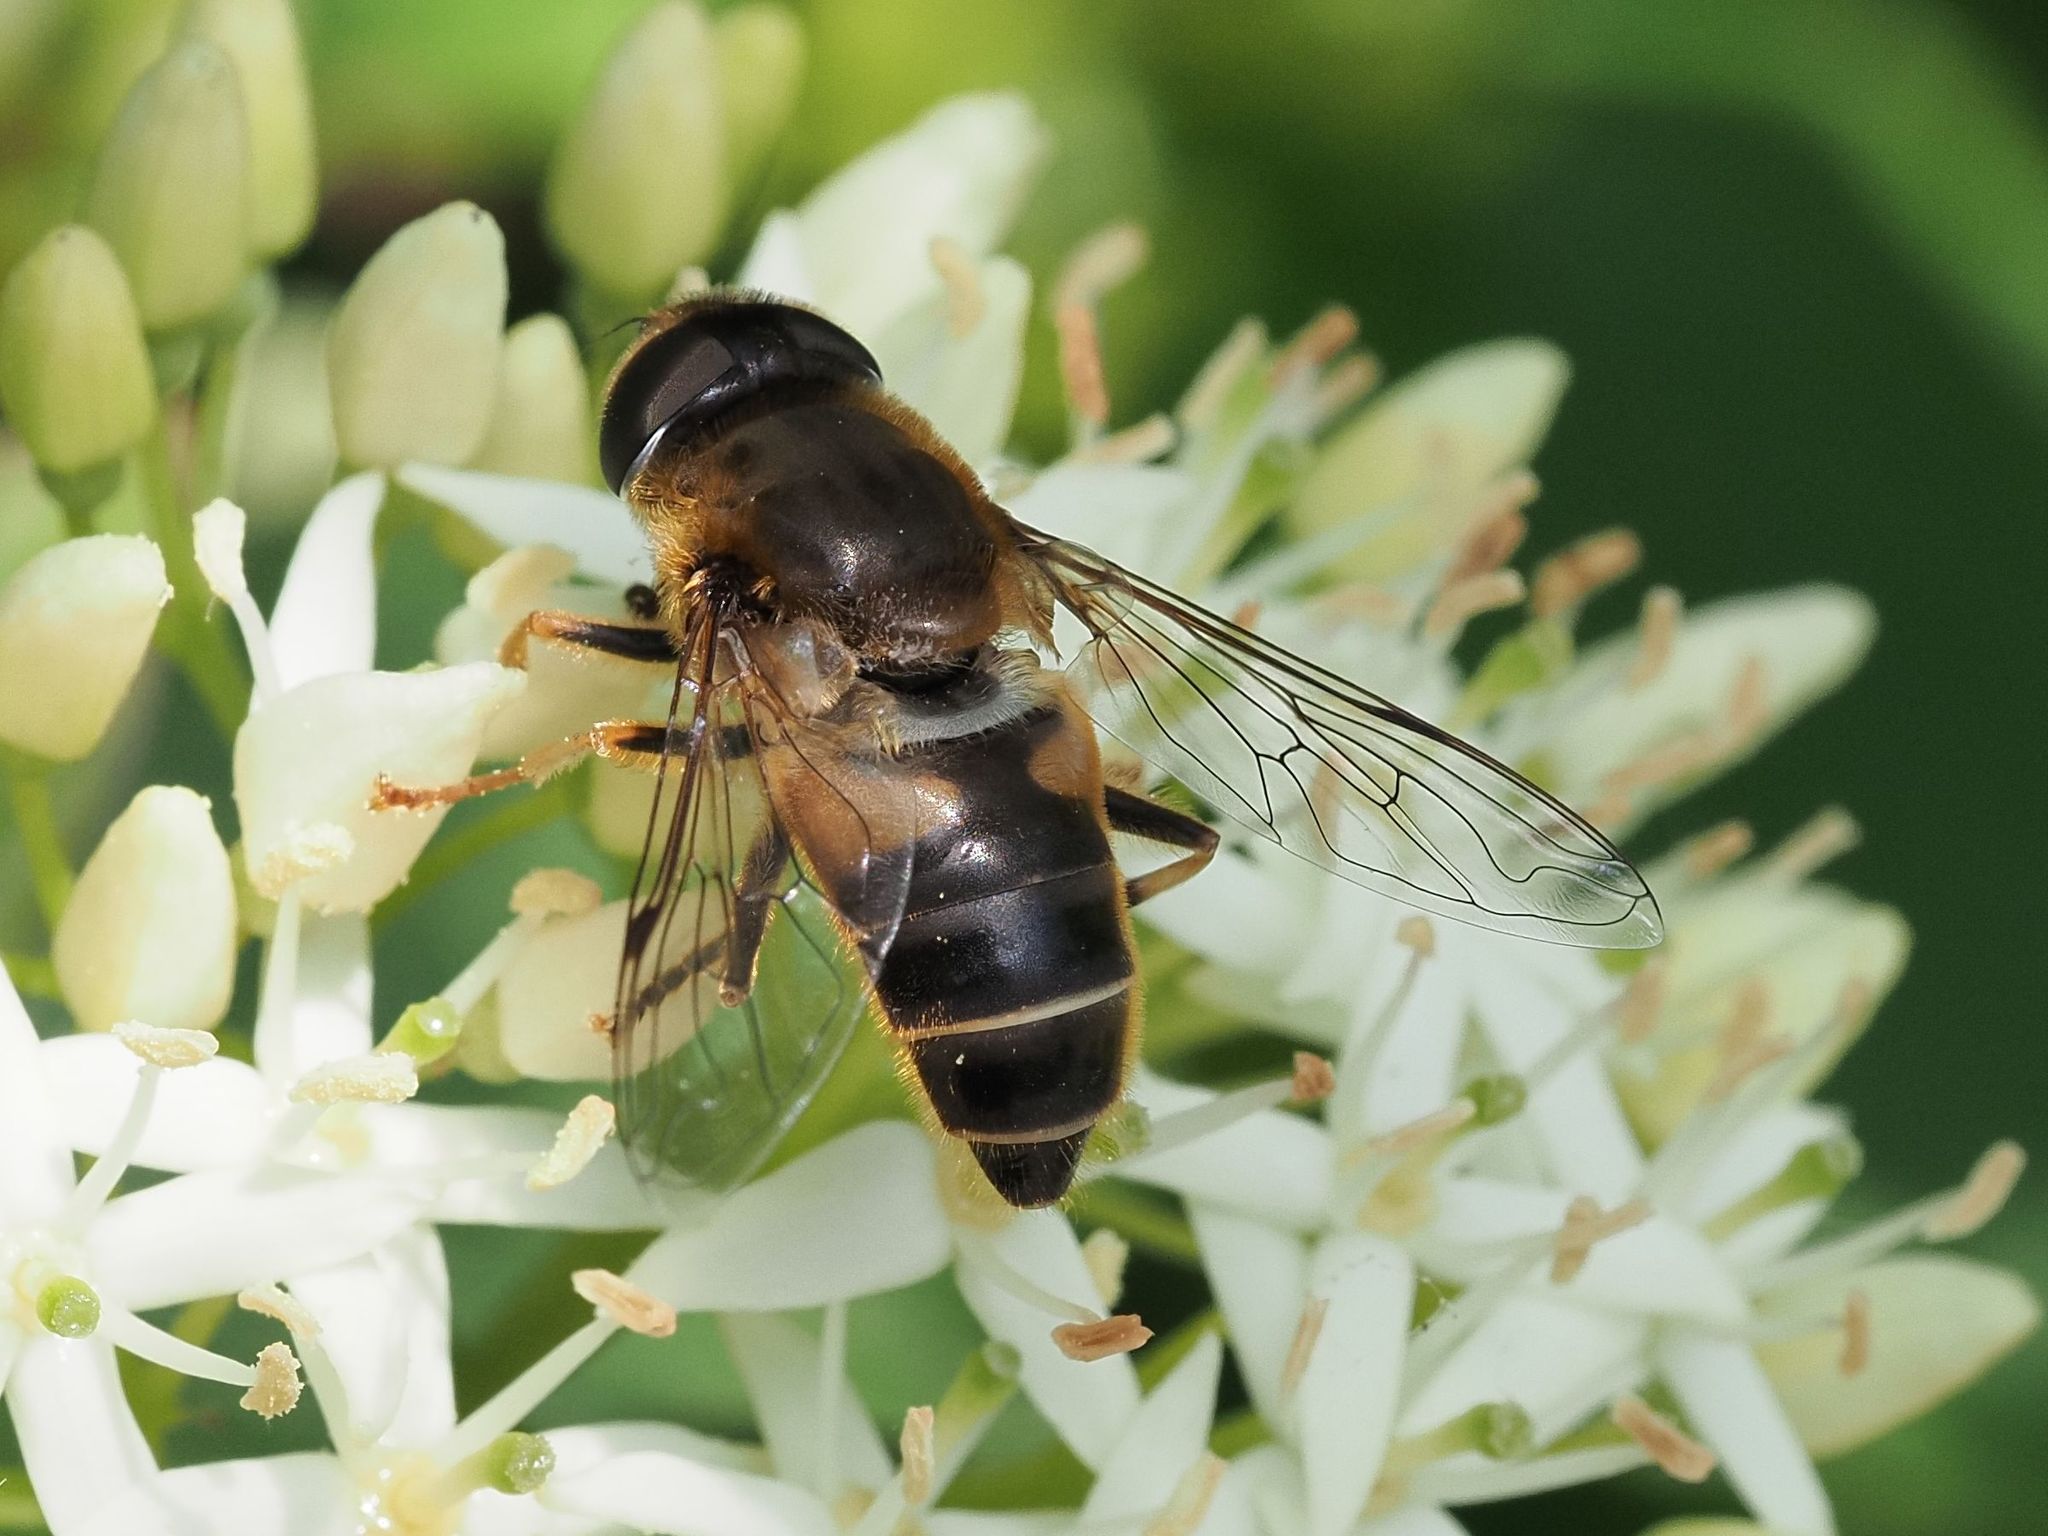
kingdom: Animalia
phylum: Arthropoda
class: Insecta
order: Diptera
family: Syrphidae
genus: Eristalis
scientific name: Eristalis pertinax
